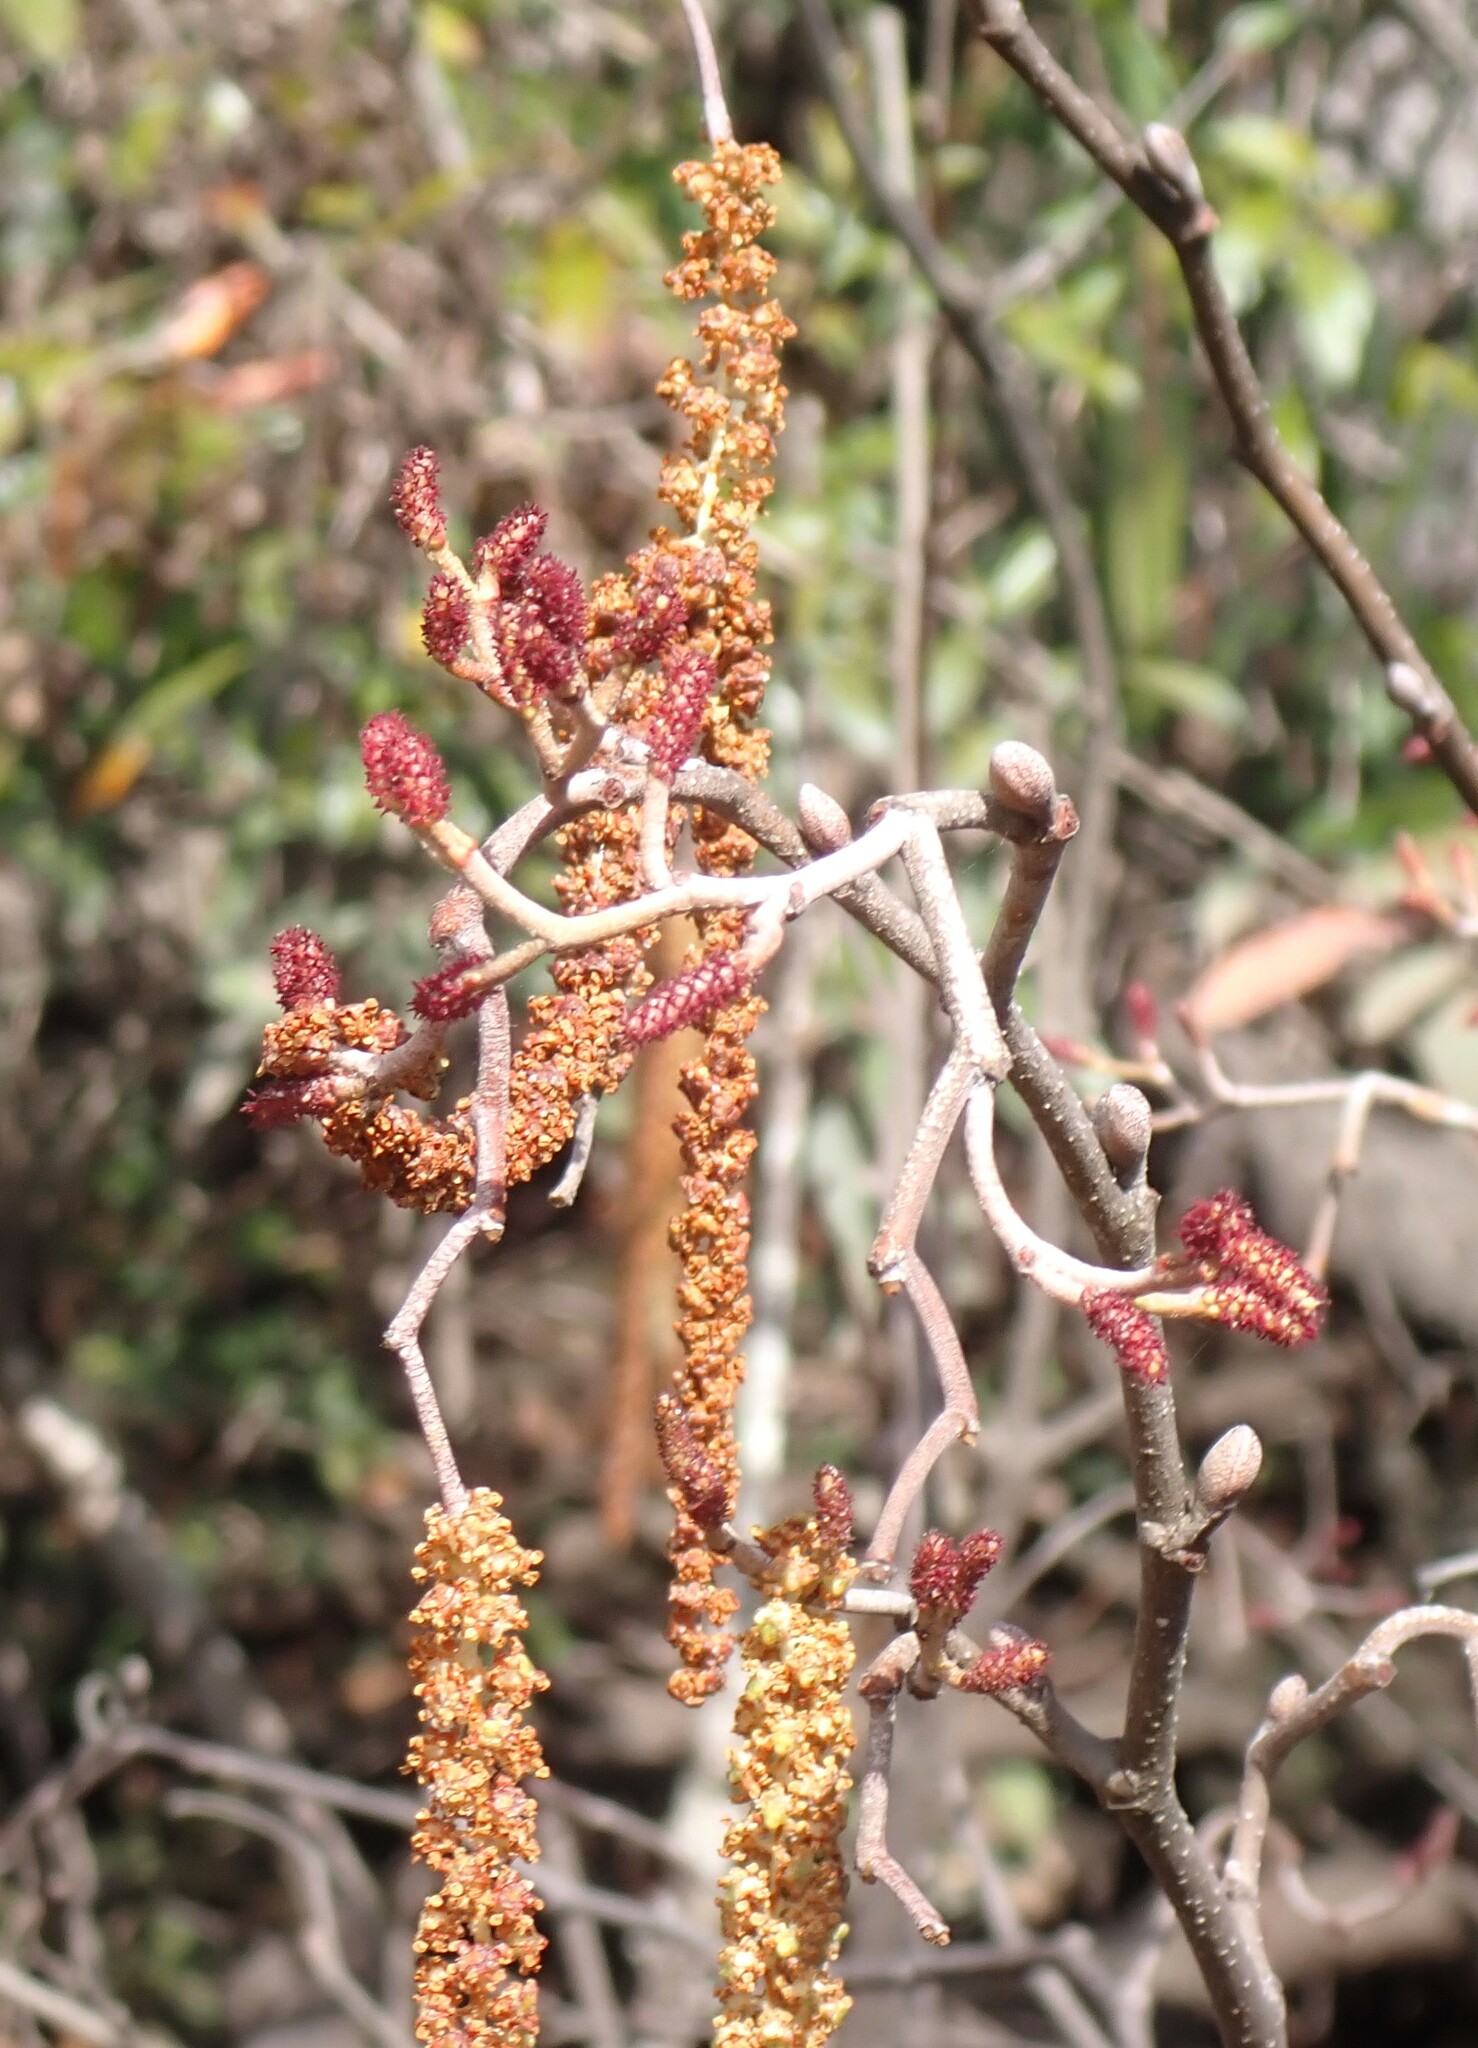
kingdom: Plantae
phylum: Tracheophyta
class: Magnoliopsida
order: Fagales
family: Betulaceae
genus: Alnus
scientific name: Alnus serrulata
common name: Hazel alder
